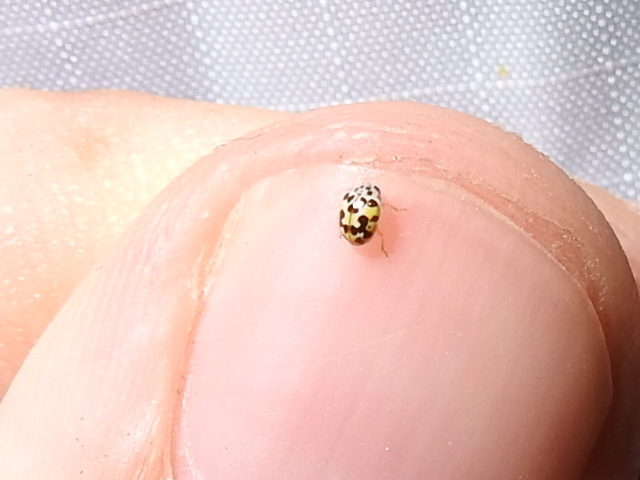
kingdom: Animalia
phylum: Arthropoda
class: Insecta
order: Coleoptera
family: Coccinellidae
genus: Psyllobora
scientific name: Psyllobora vigintimaculata
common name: Ladybird beetle
